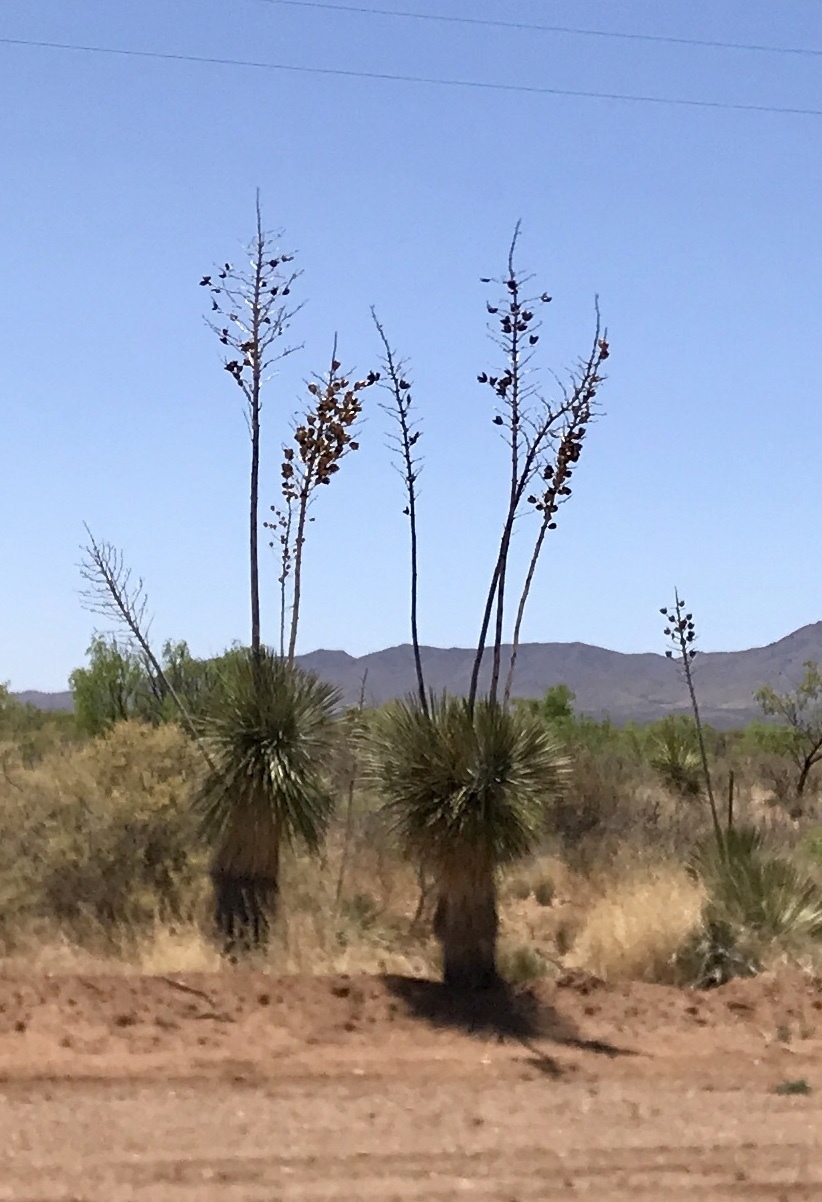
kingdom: Plantae
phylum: Tracheophyta
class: Liliopsida
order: Asparagales
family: Asparagaceae
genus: Yucca
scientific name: Yucca elata
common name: Palmella
